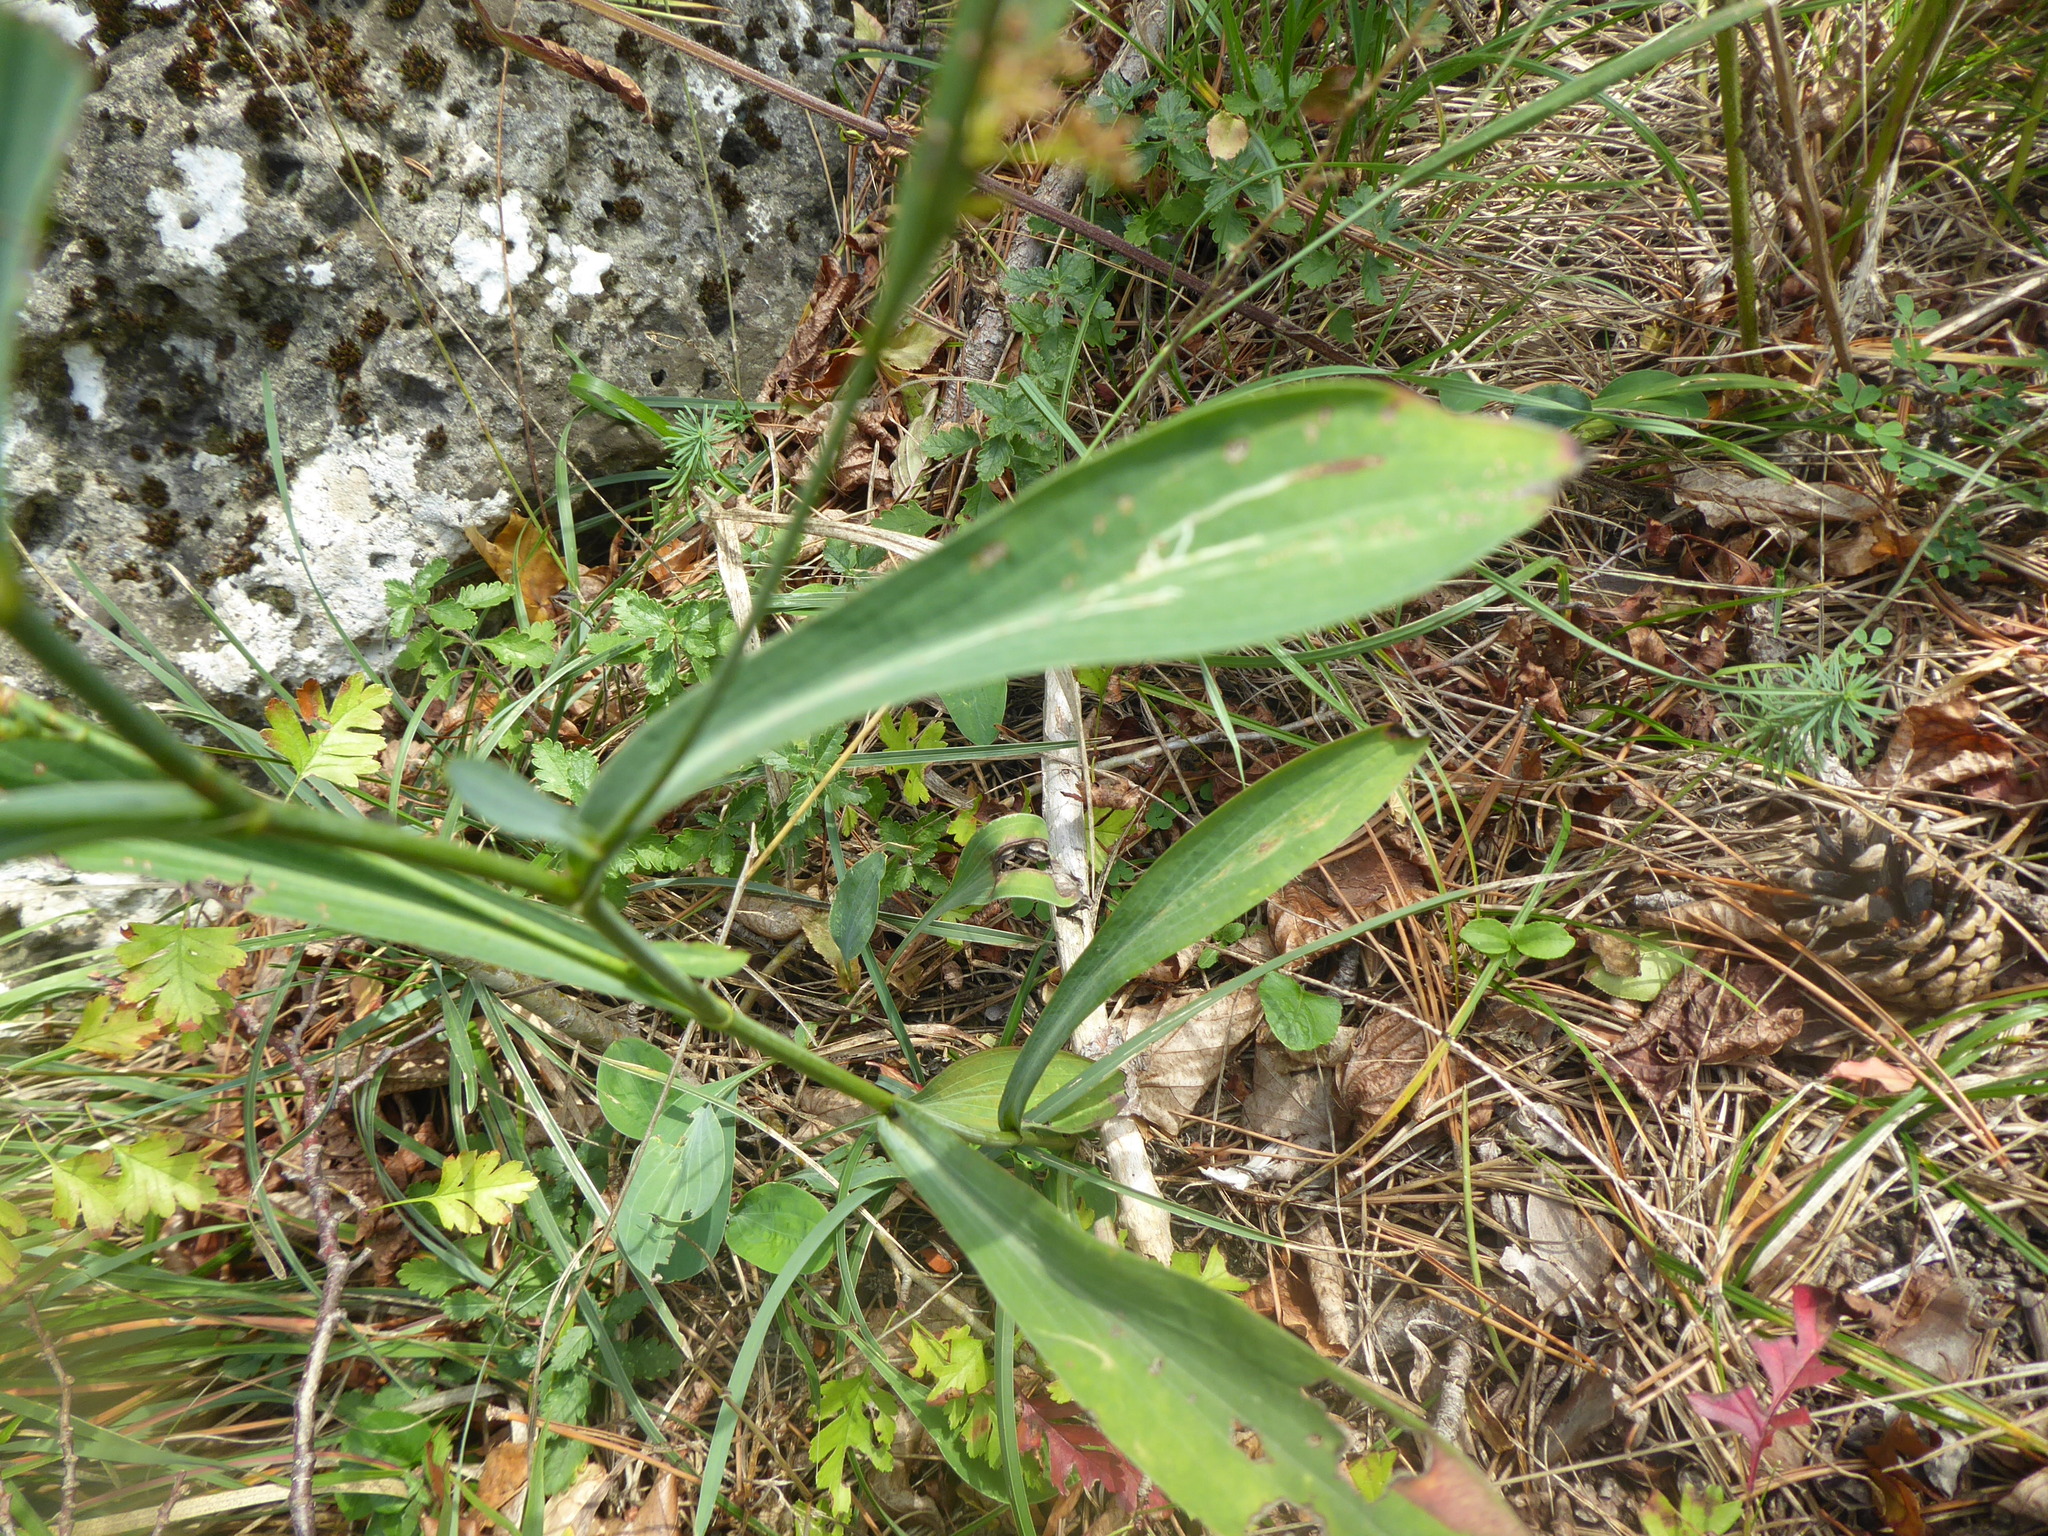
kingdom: Plantae
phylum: Tracheophyta
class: Magnoliopsida
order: Apiales
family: Apiaceae
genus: Bupleurum
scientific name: Bupleurum falcatum
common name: Sickle-leaved hare's-ear
